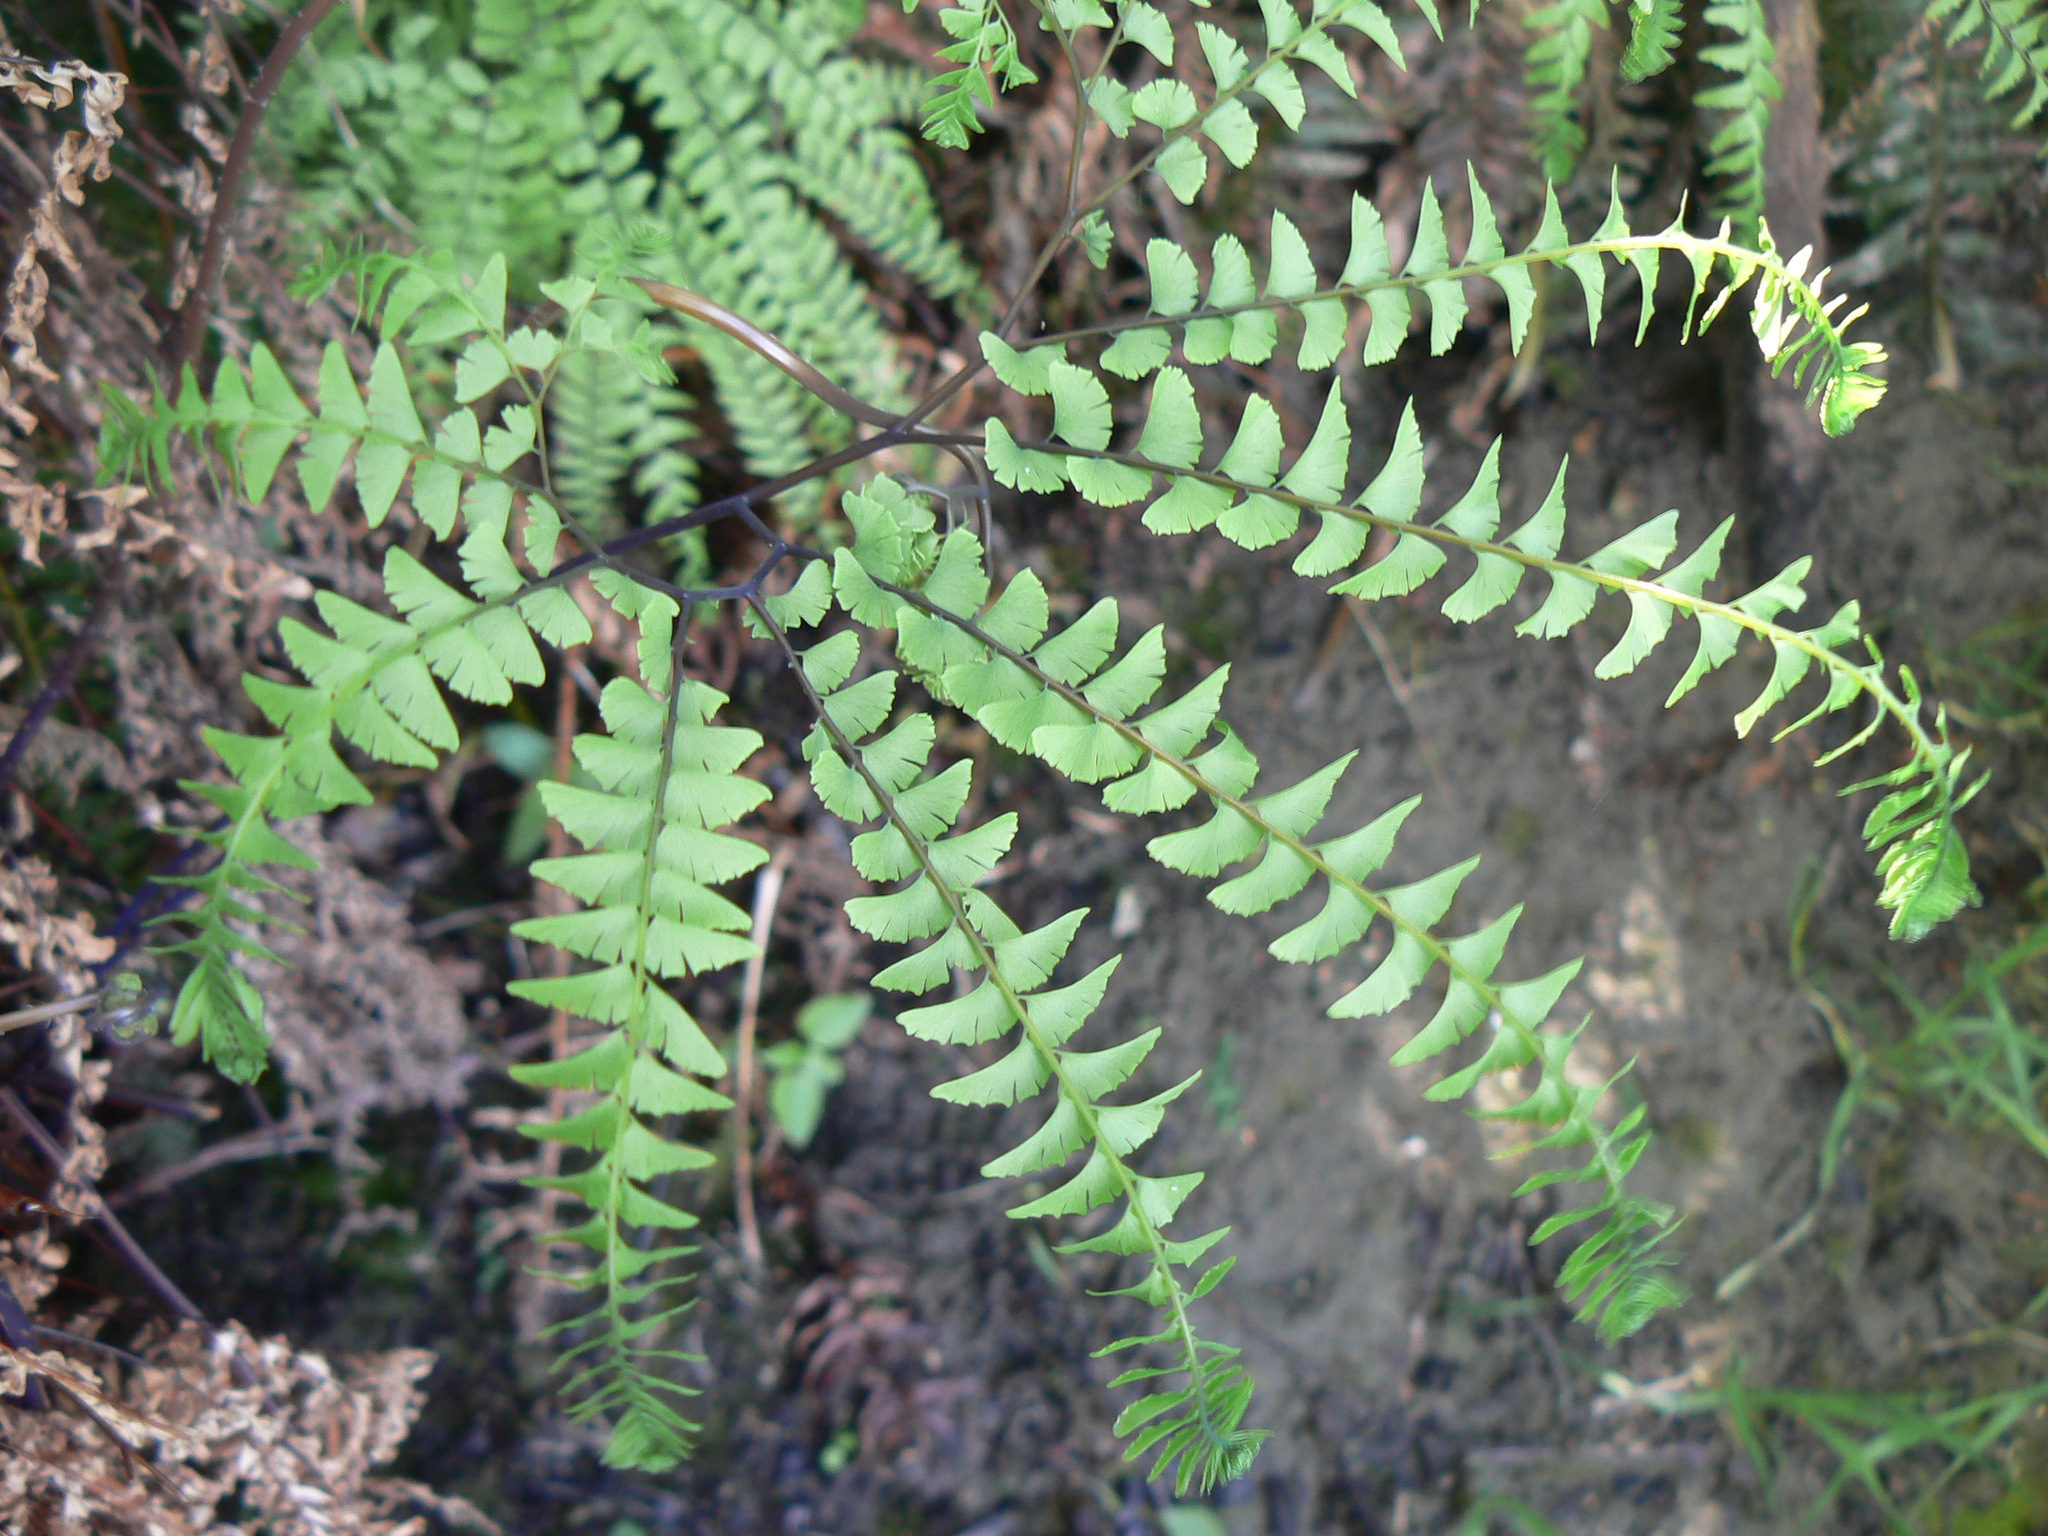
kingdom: Plantae
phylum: Tracheophyta
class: Polypodiopsida
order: Polypodiales
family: Pteridaceae
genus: Adiantum
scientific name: Adiantum aleuticum
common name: Aleutian maidenhair fern
